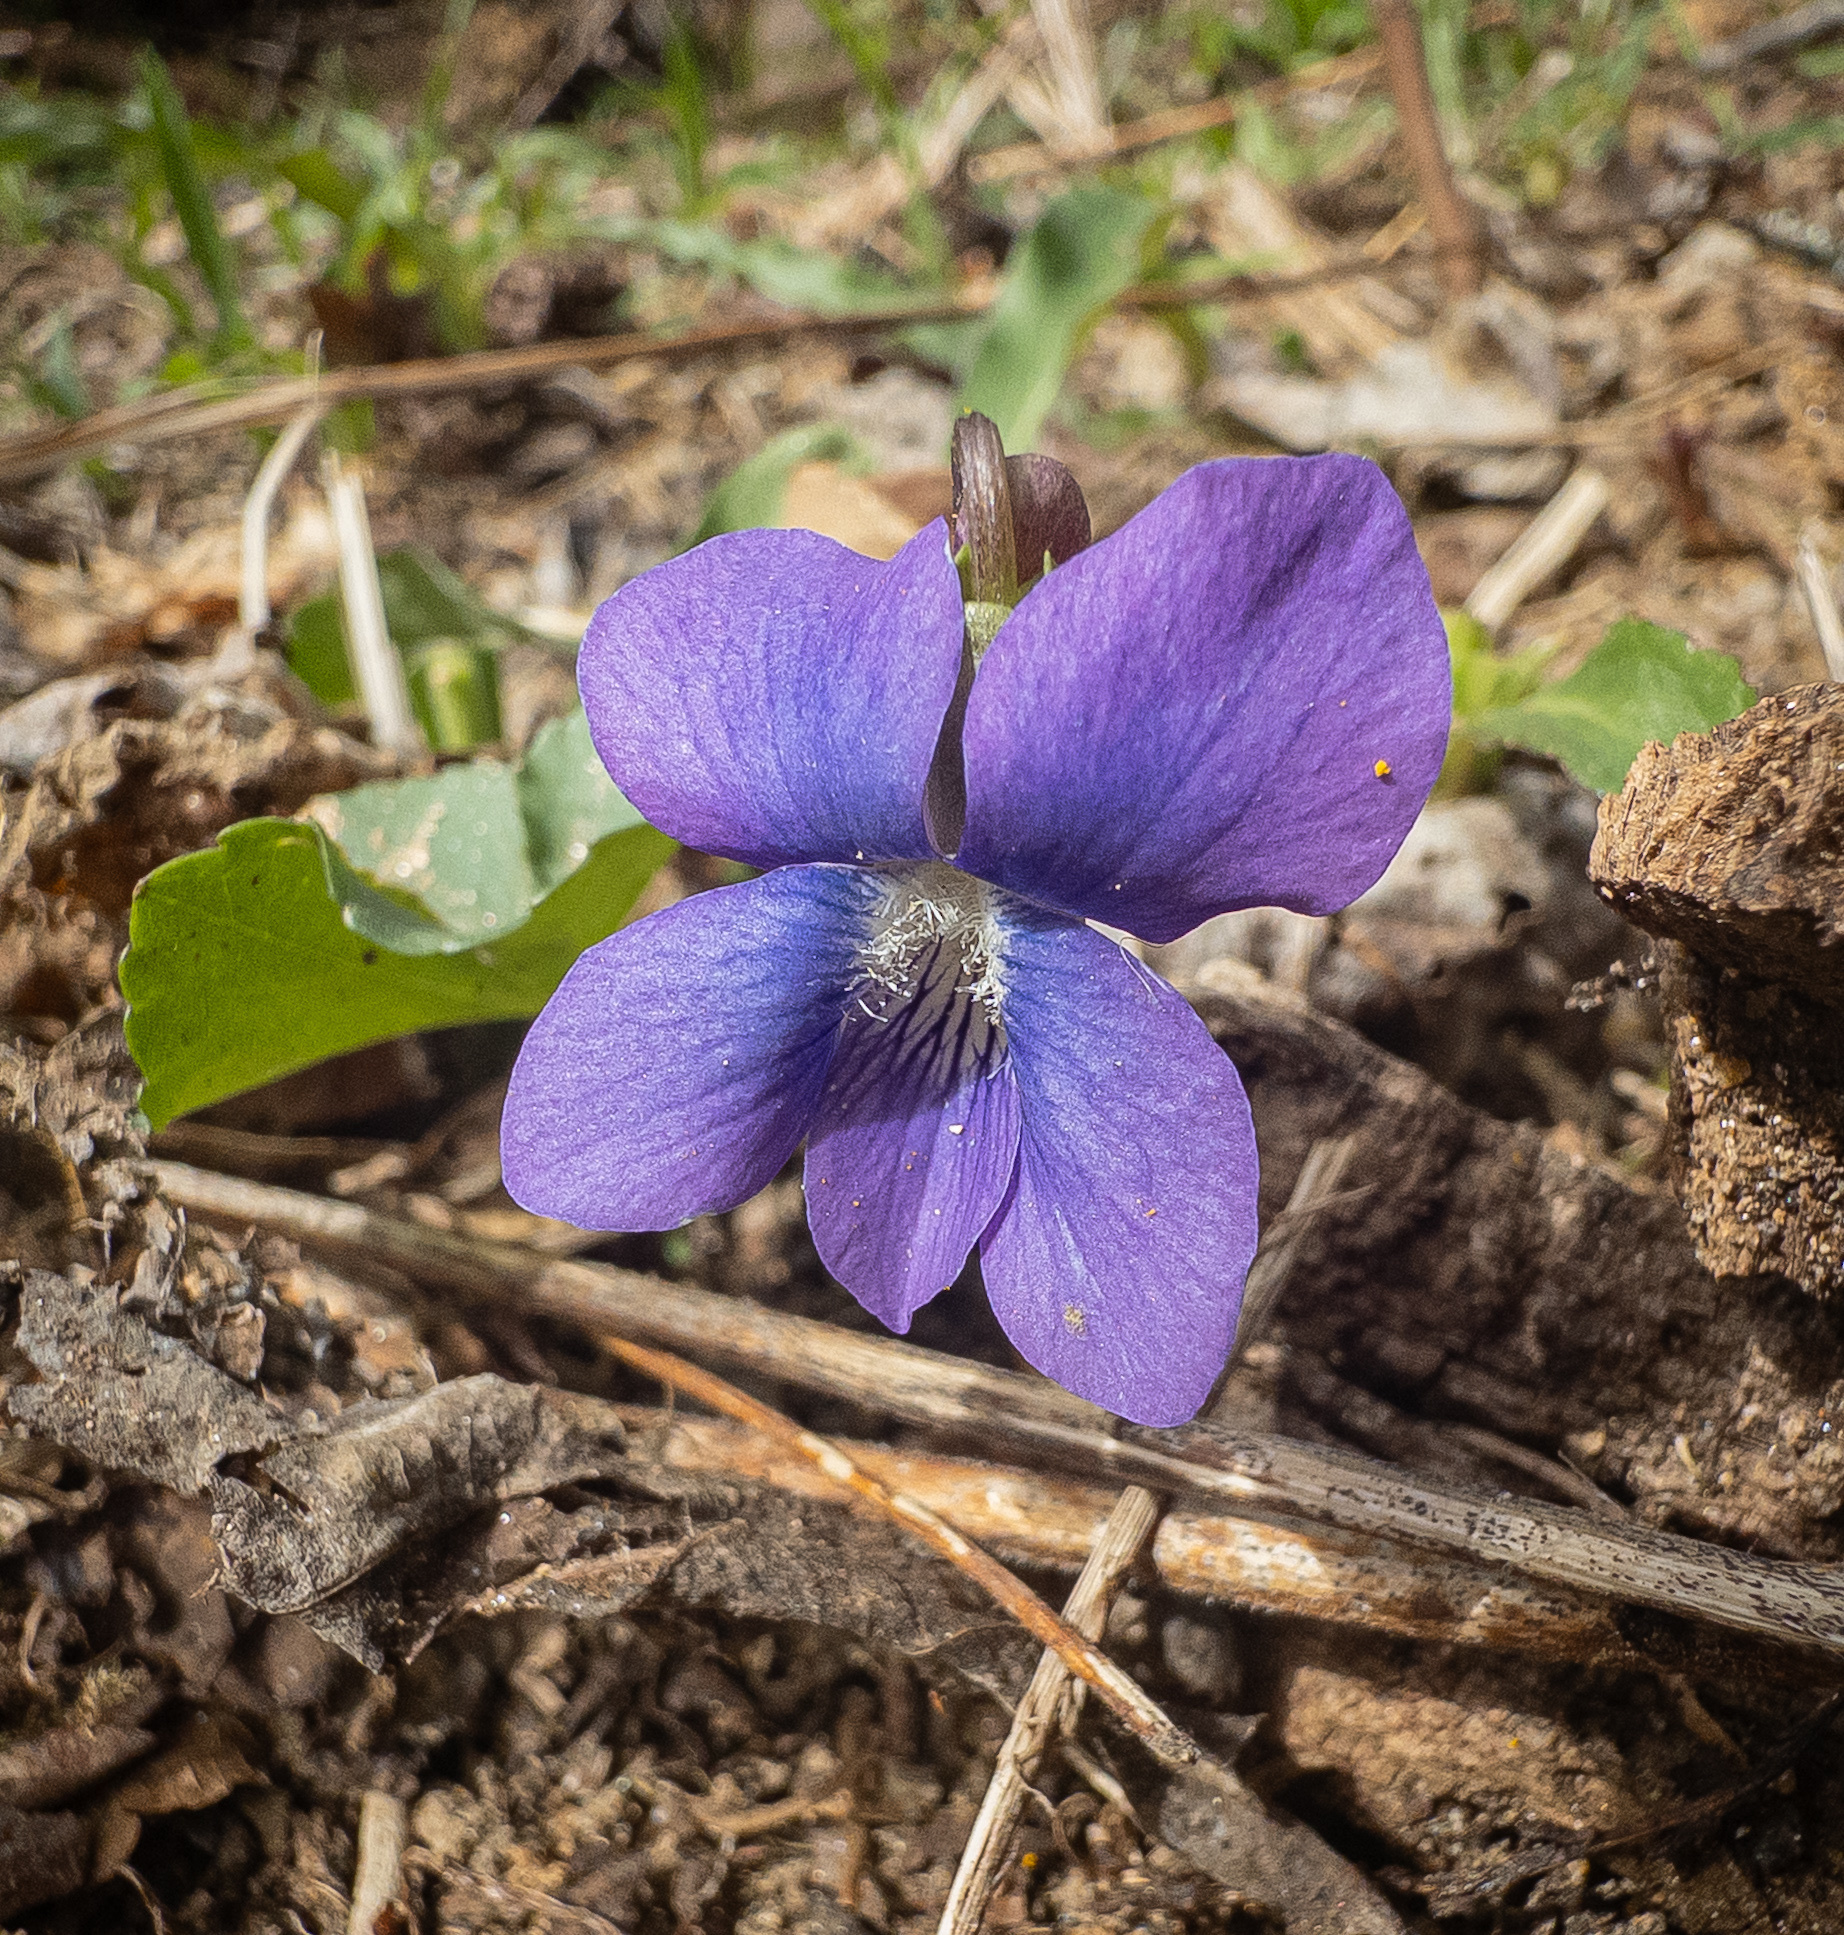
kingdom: Plantae
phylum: Tracheophyta
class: Magnoliopsida
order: Malpighiales
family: Violaceae
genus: Viola
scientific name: Viola sororia
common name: Dooryard violet
